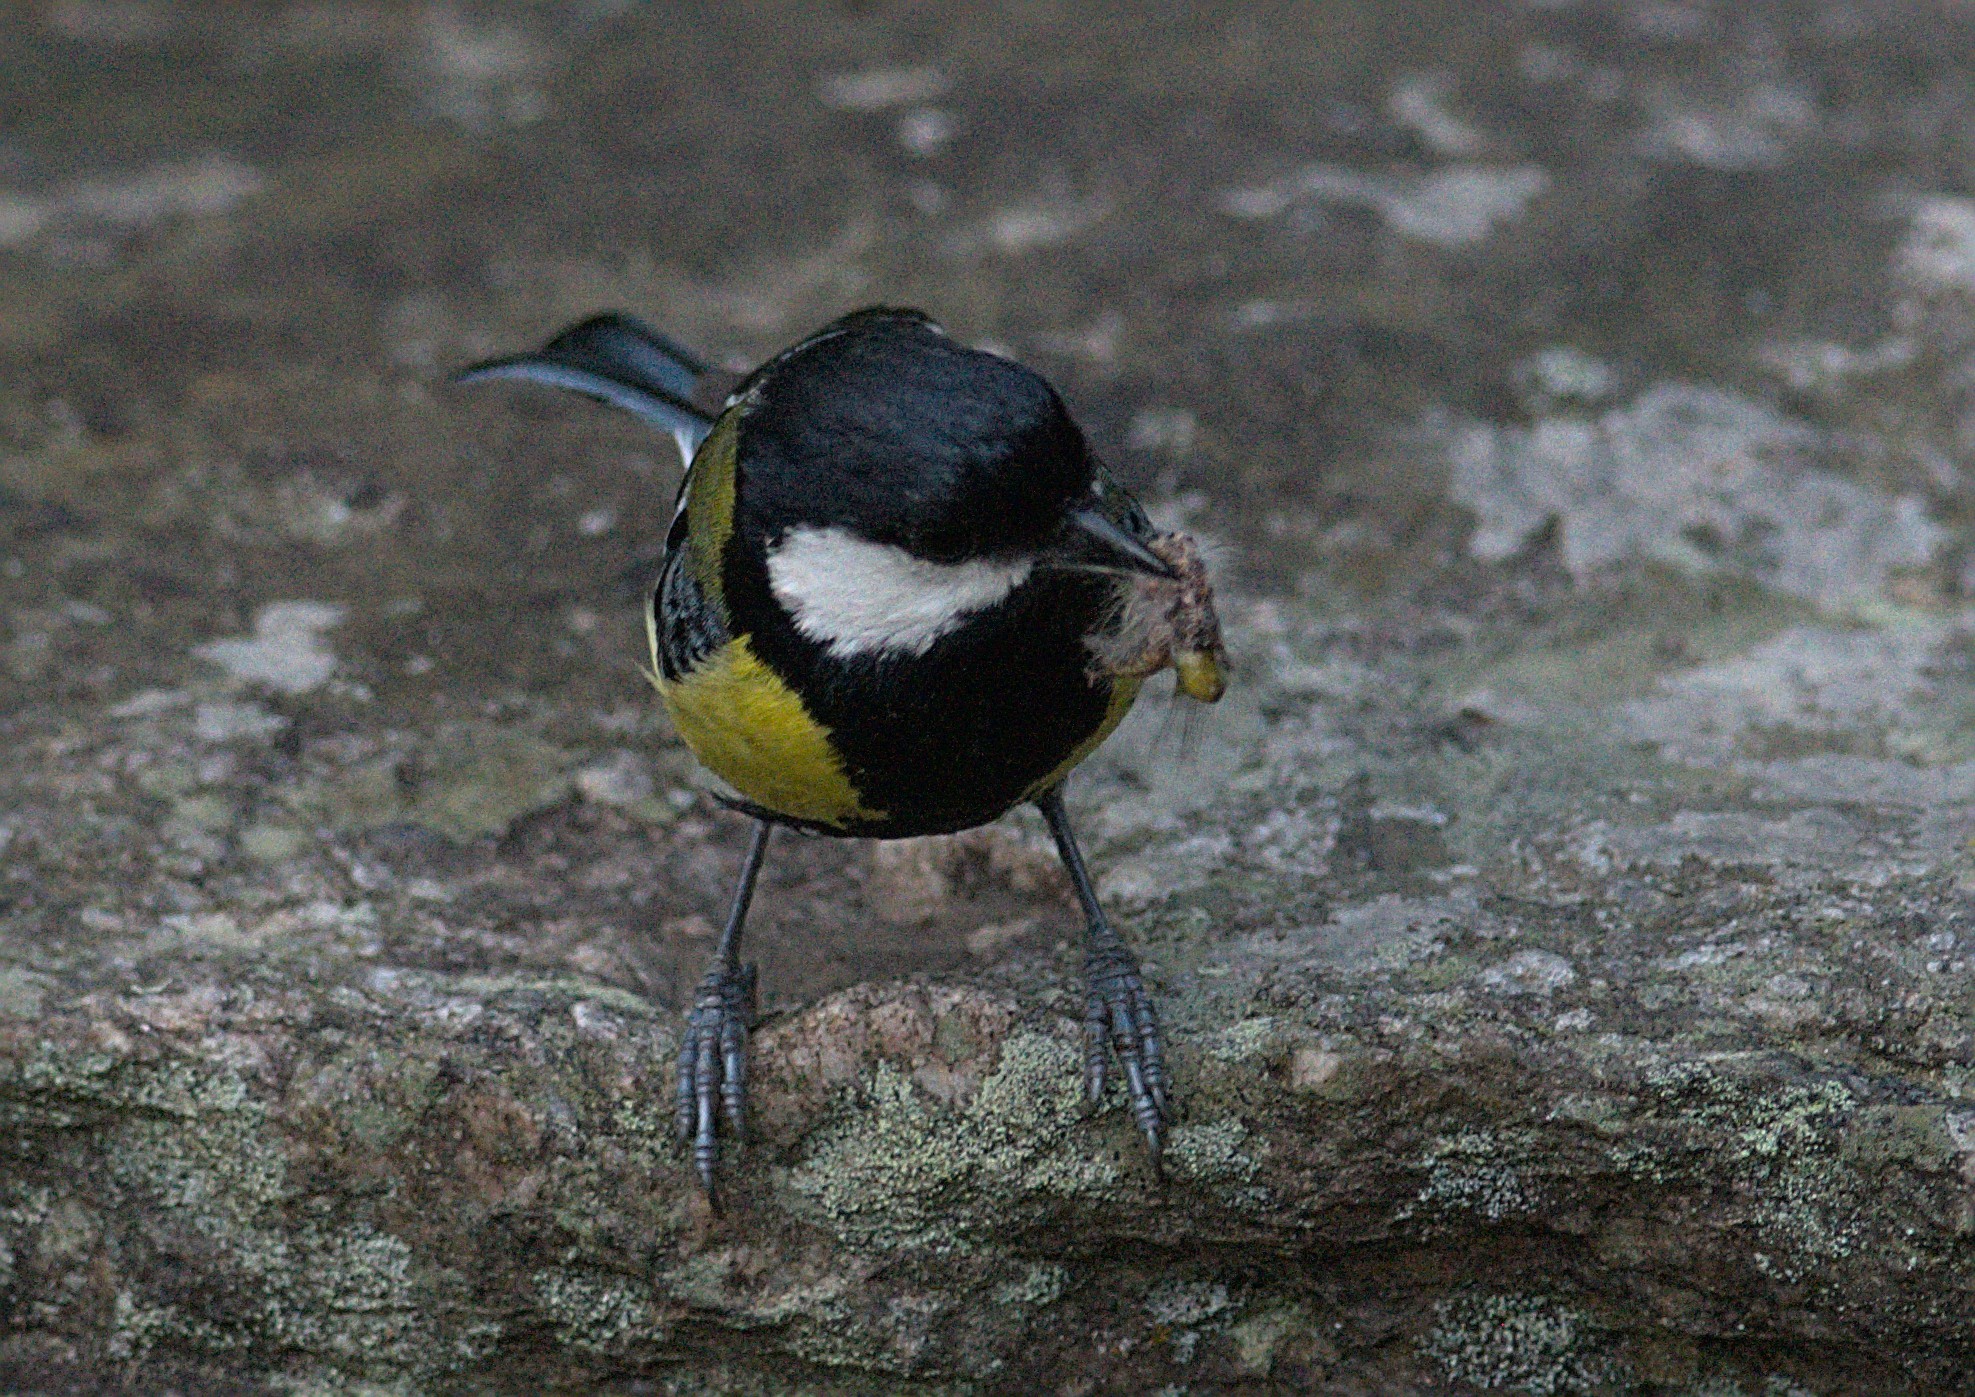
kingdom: Animalia
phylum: Chordata
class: Aves
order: Passeriformes
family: Paridae
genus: Parus
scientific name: Parus monticolus
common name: Green-backed tit
